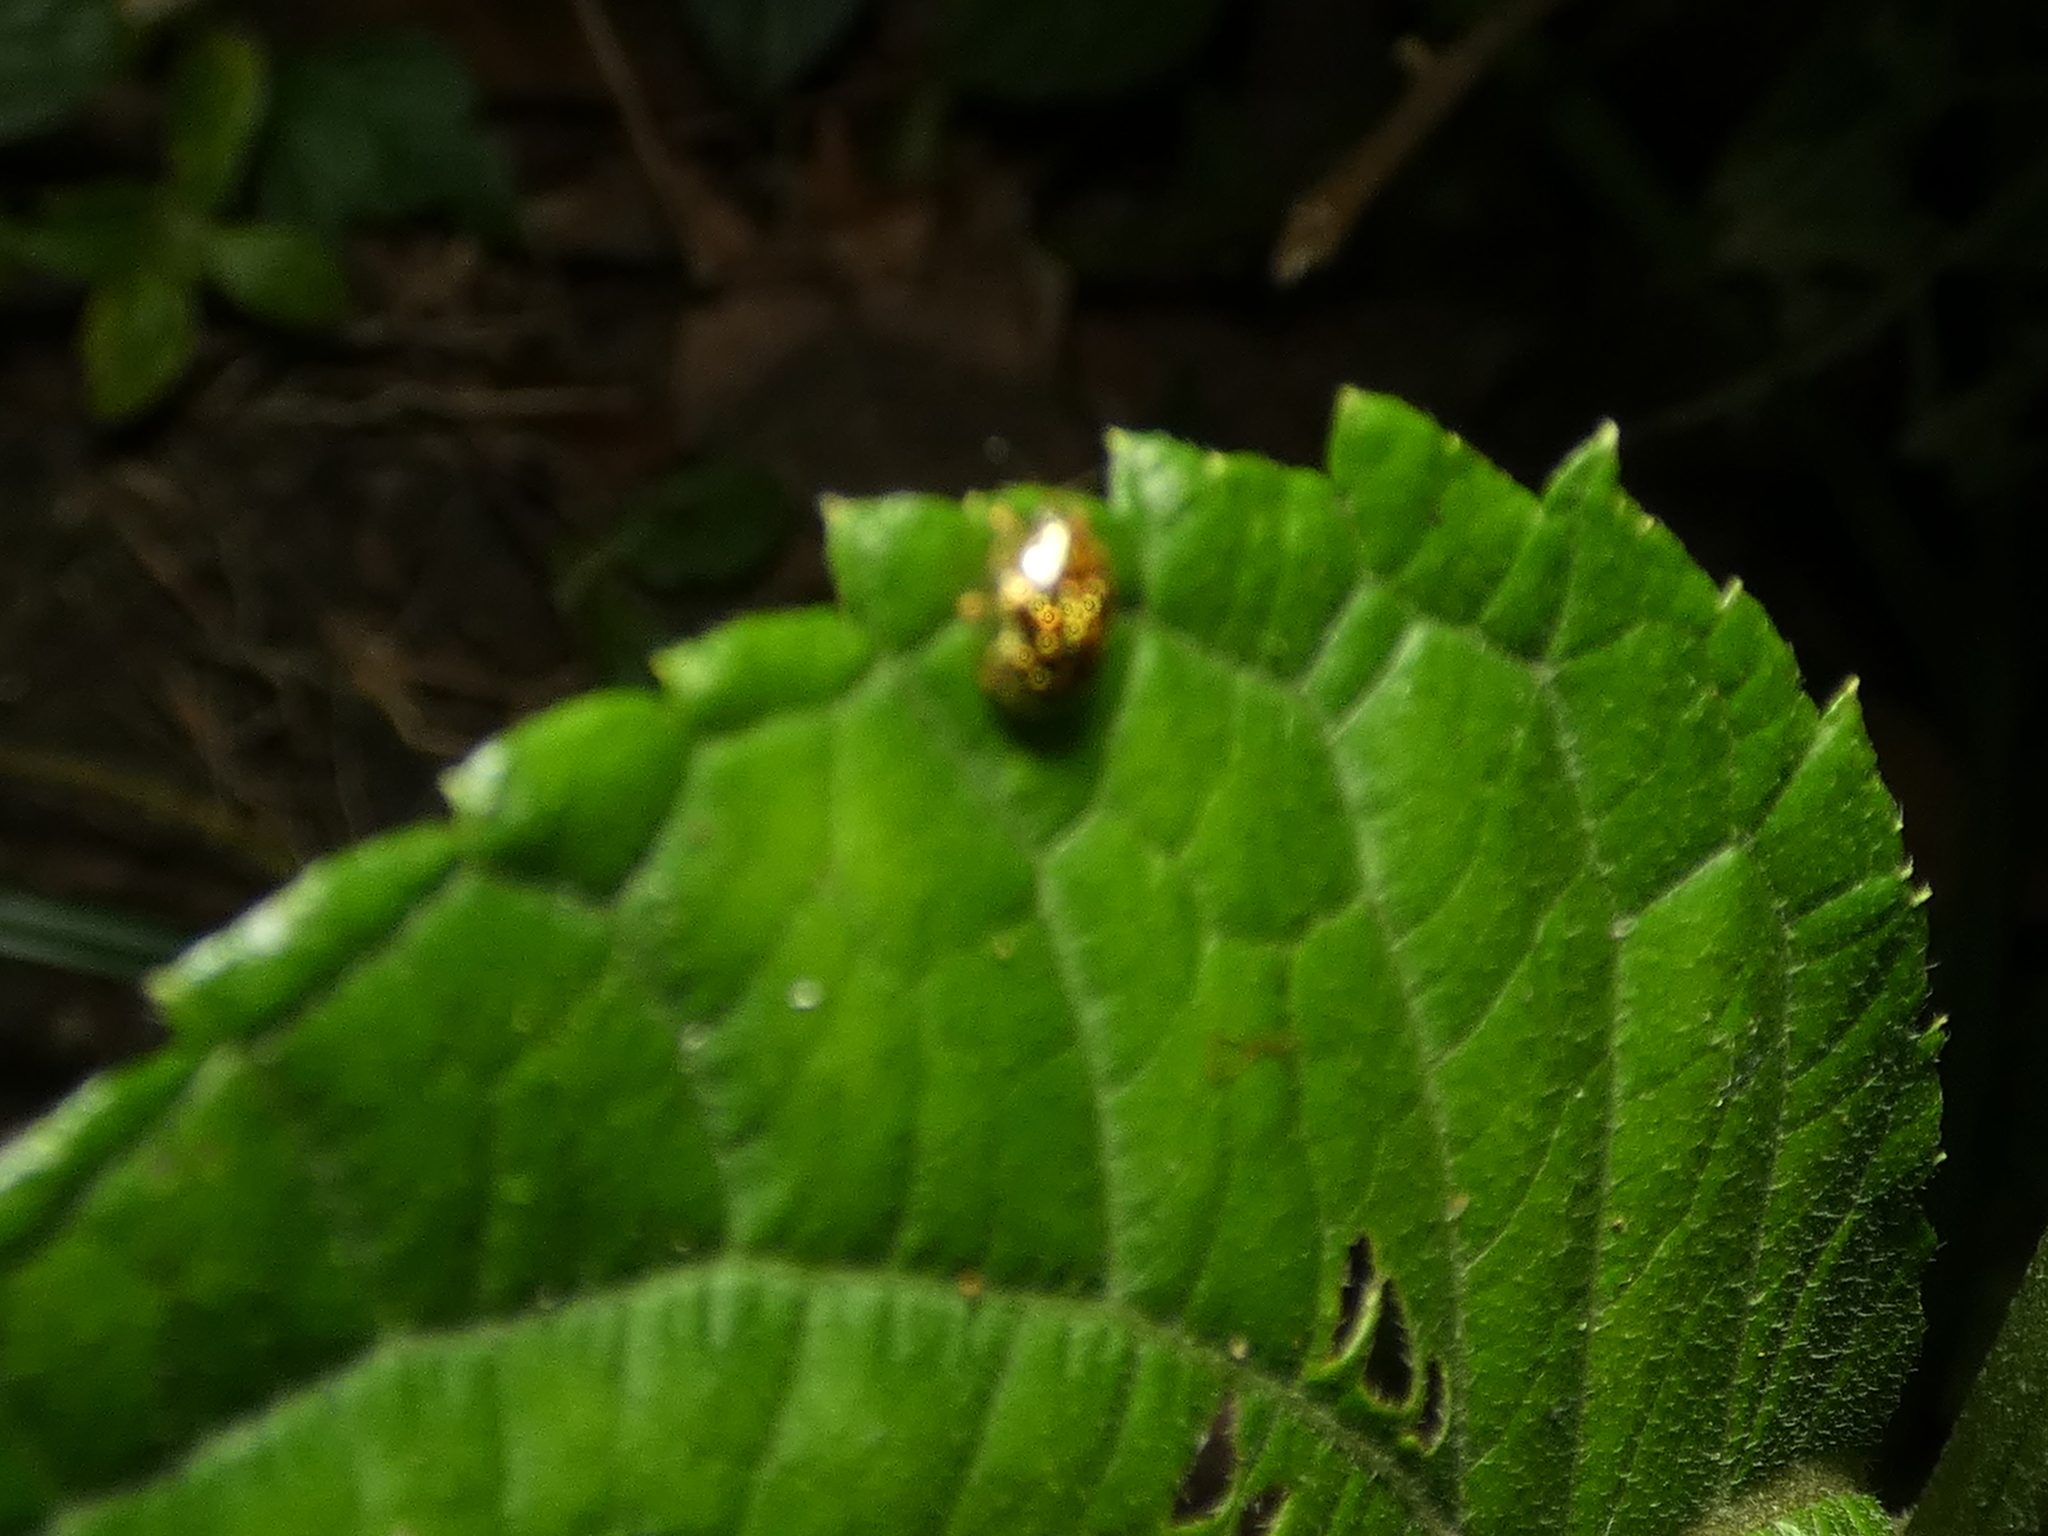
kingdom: Animalia
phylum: Arthropoda
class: Insecta
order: Coleoptera
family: Chrysomelidae
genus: Cteisella
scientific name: Cteisella guttigera
